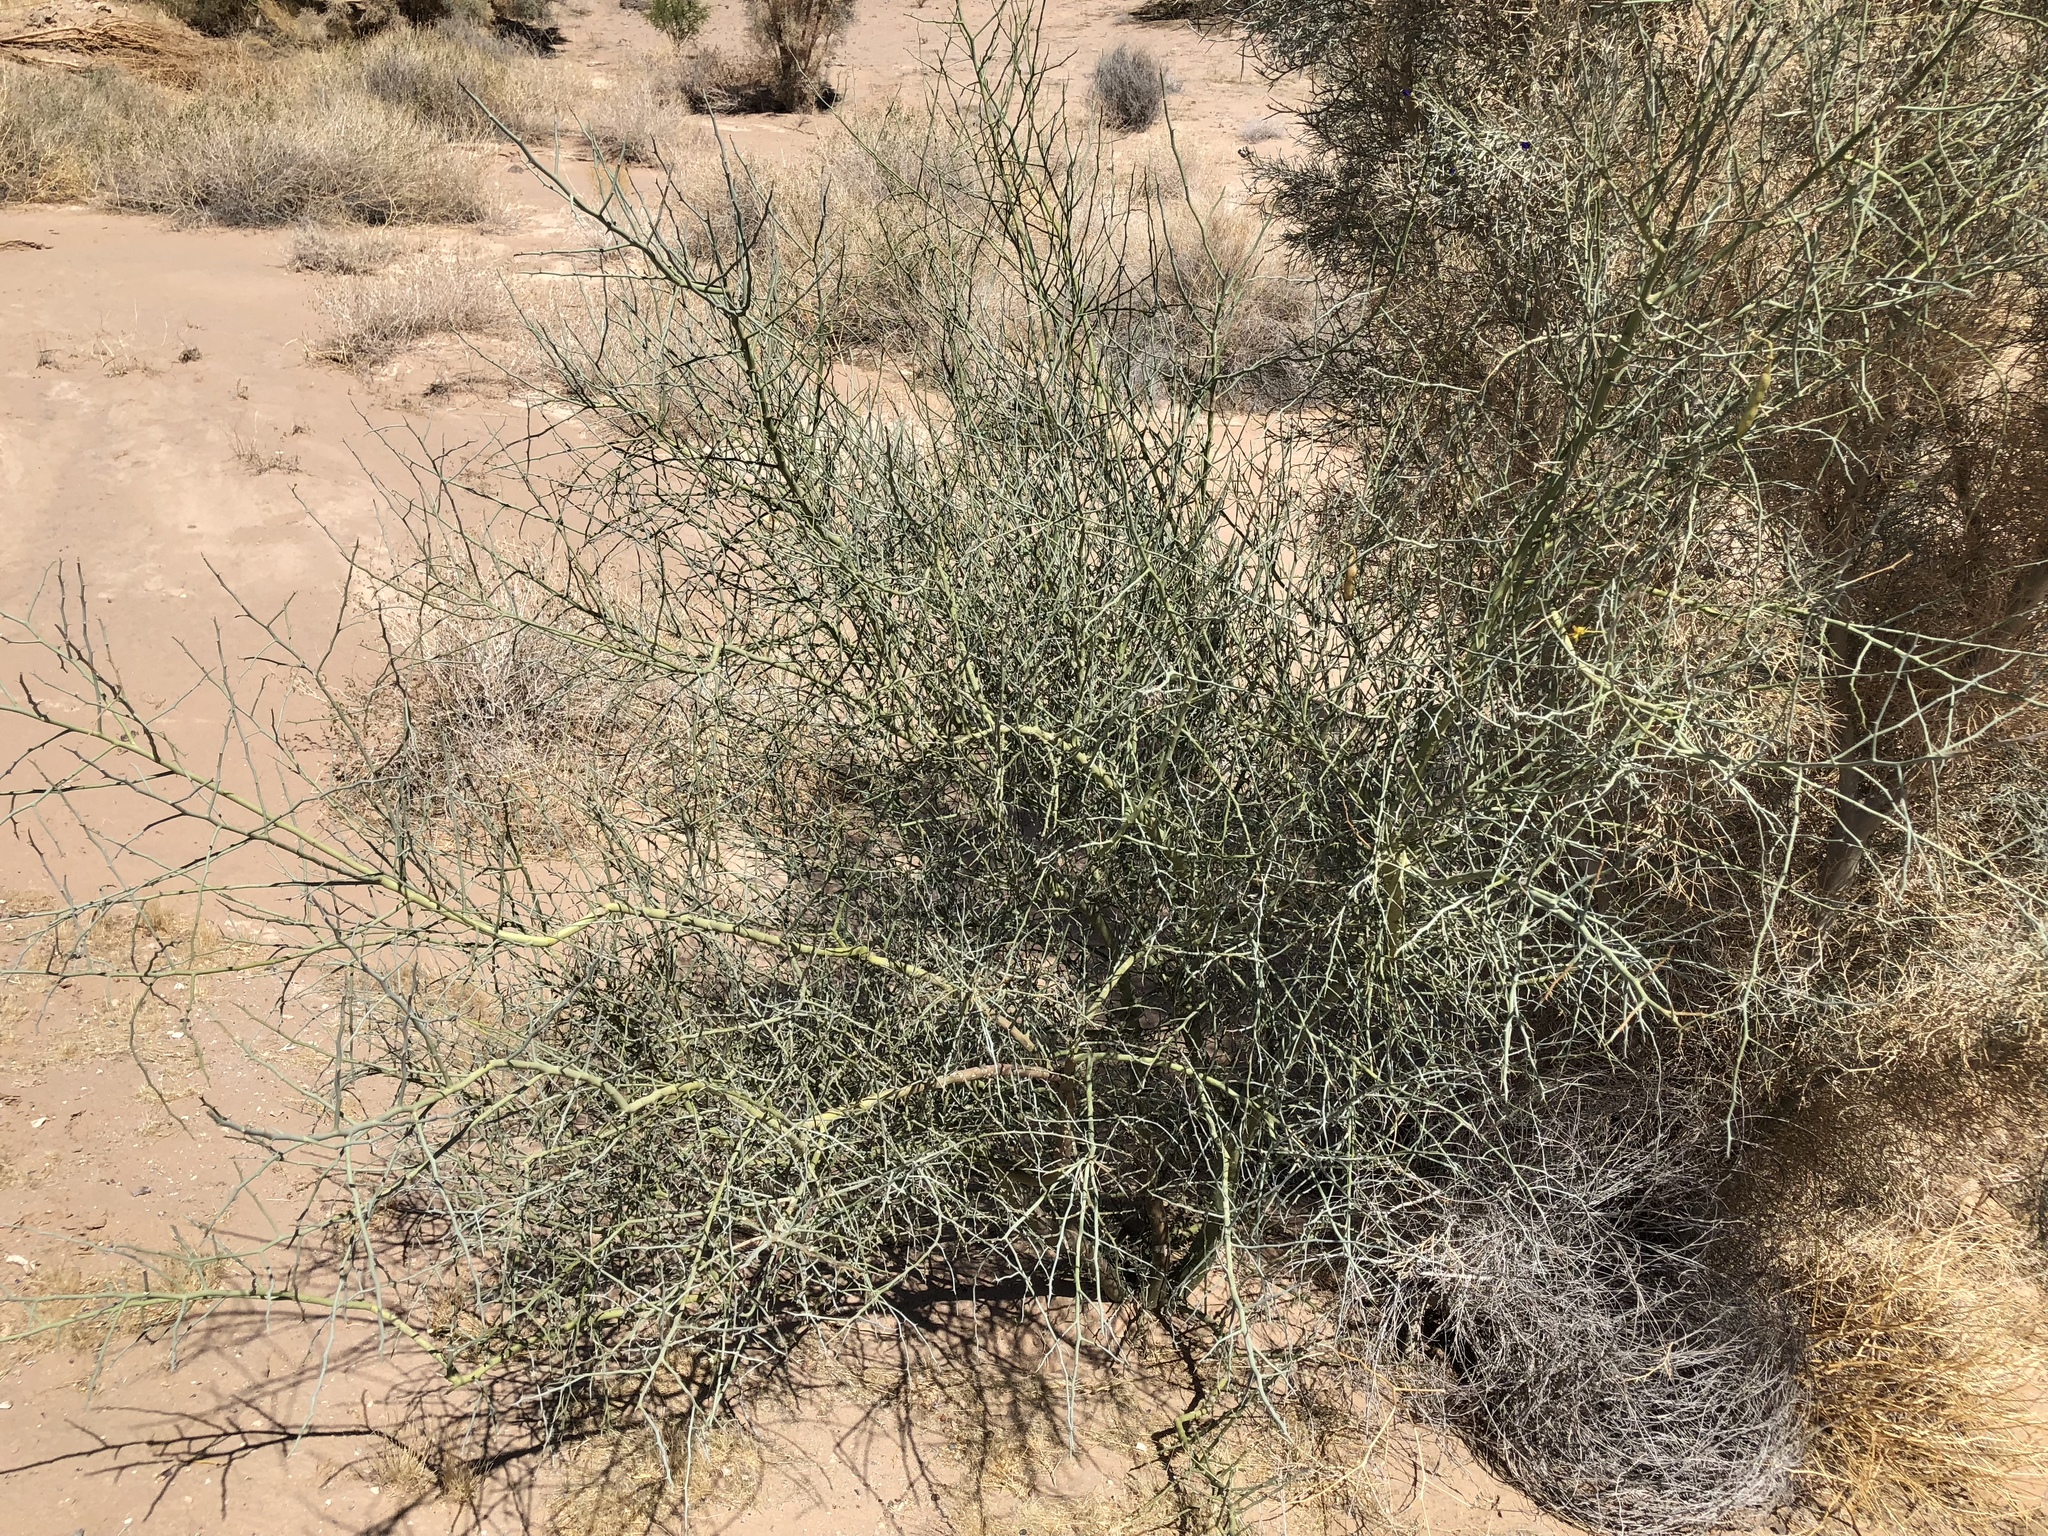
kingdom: Plantae
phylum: Tracheophyta
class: Magnoliopsida
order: Fabales
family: Fabaceae
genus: Parkinsonia
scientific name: Parkinsonia florida
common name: Blue paloverde
